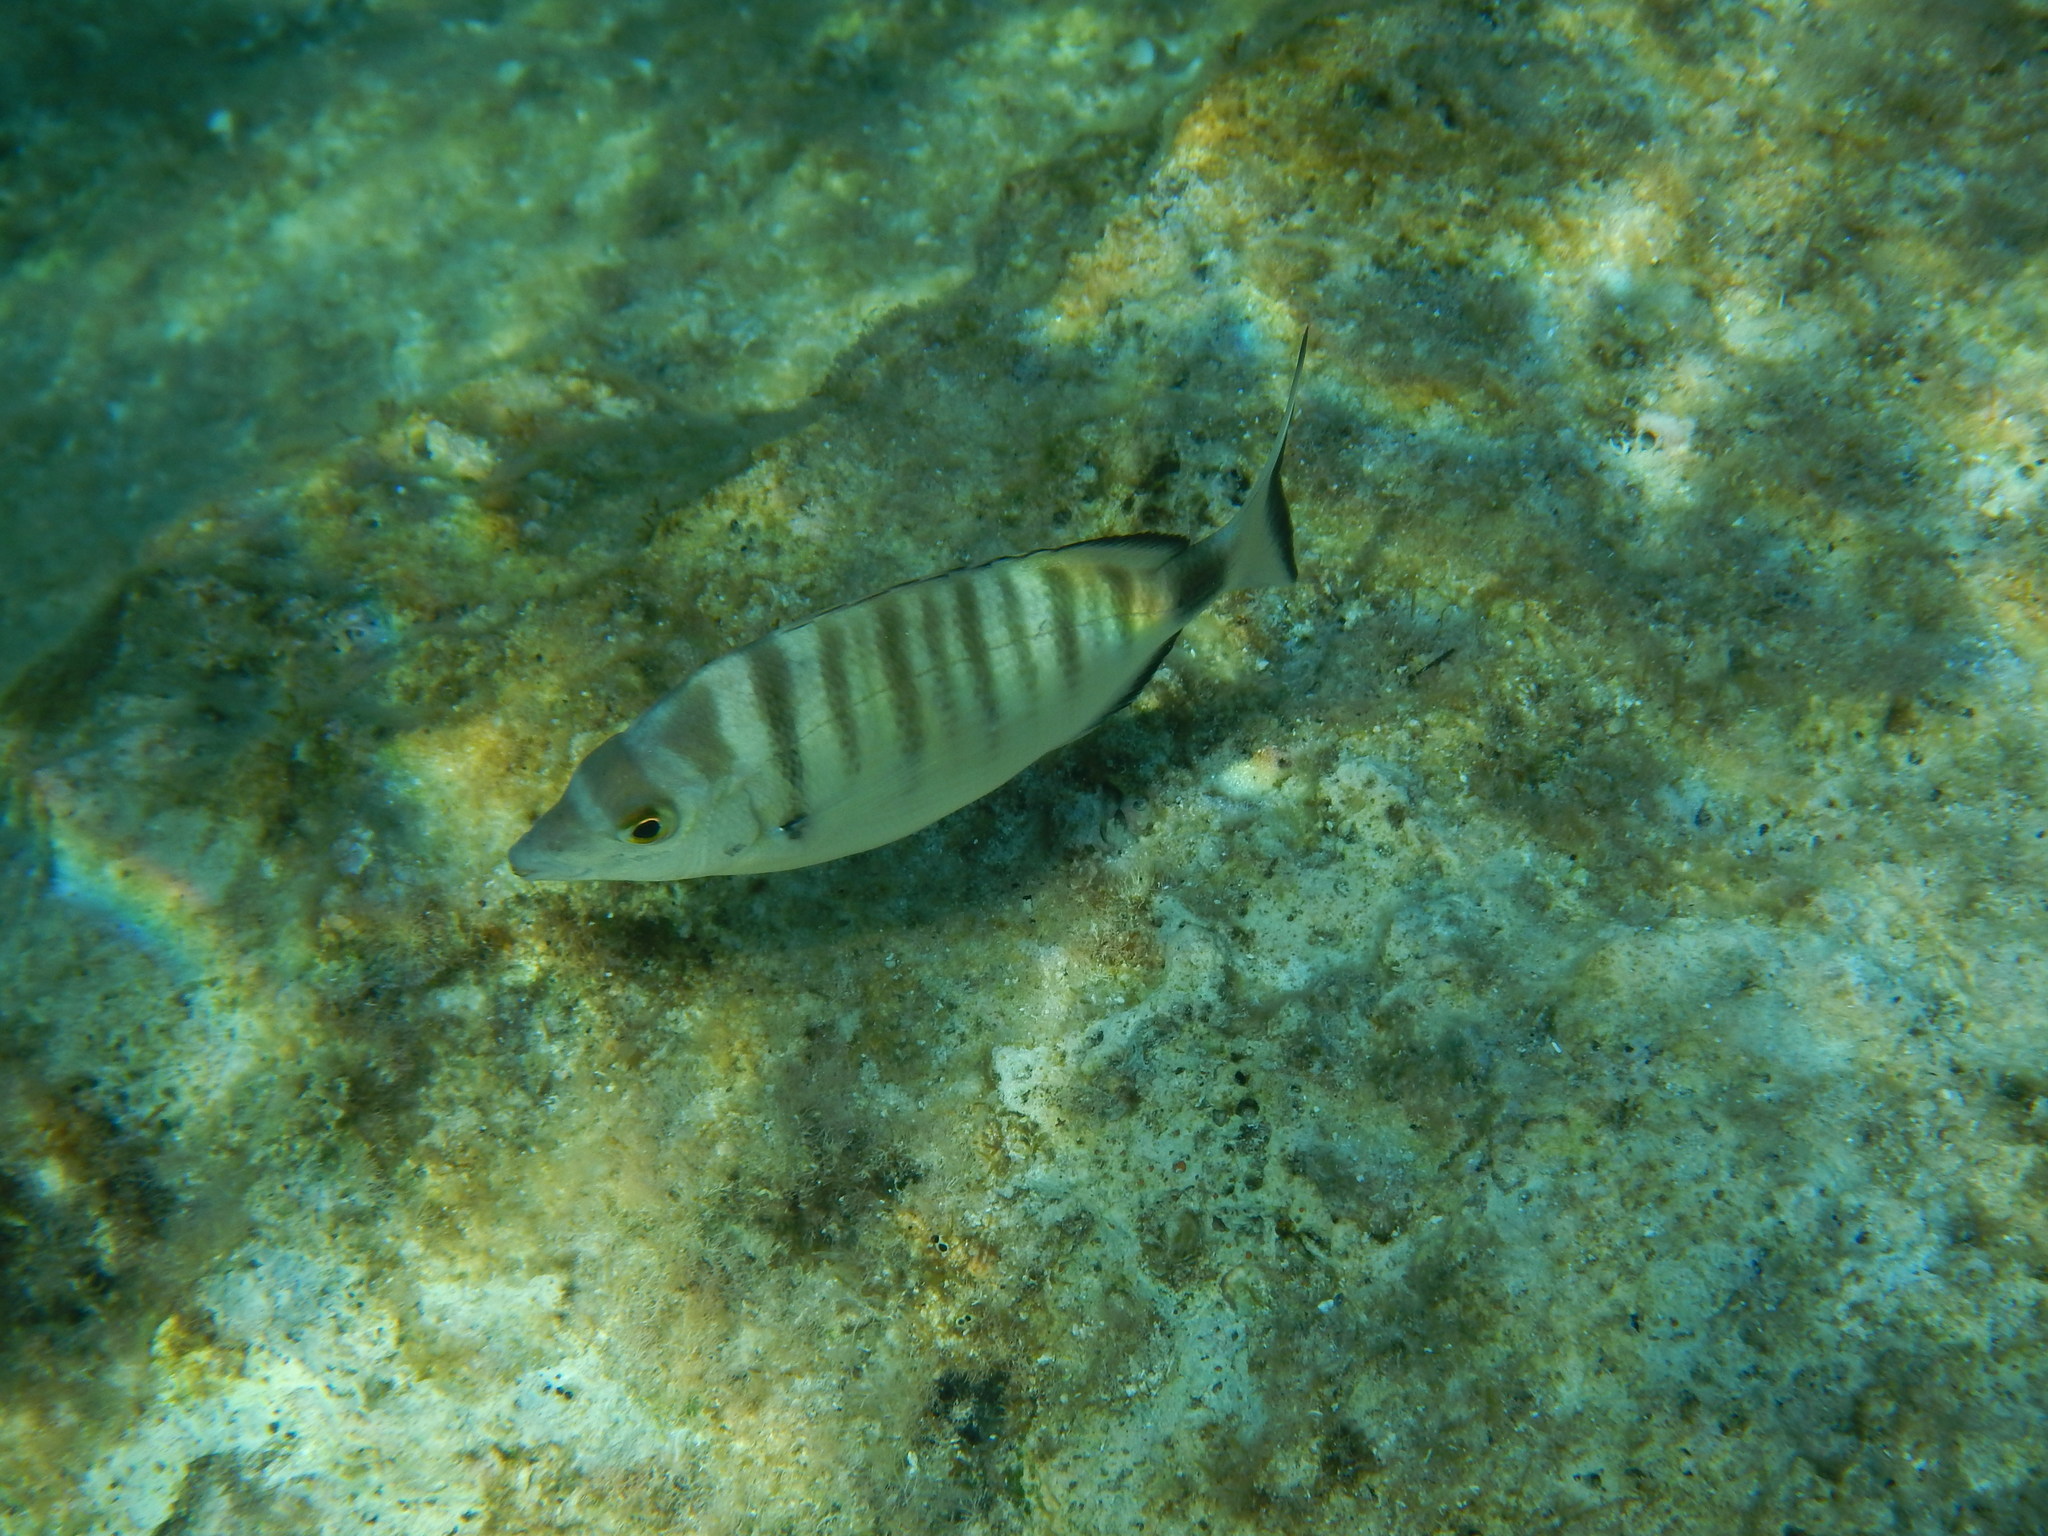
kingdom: Animalia
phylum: Chordata
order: Perciformes
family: Sparidae
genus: Diplodus
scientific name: Diplodus puntazzo
